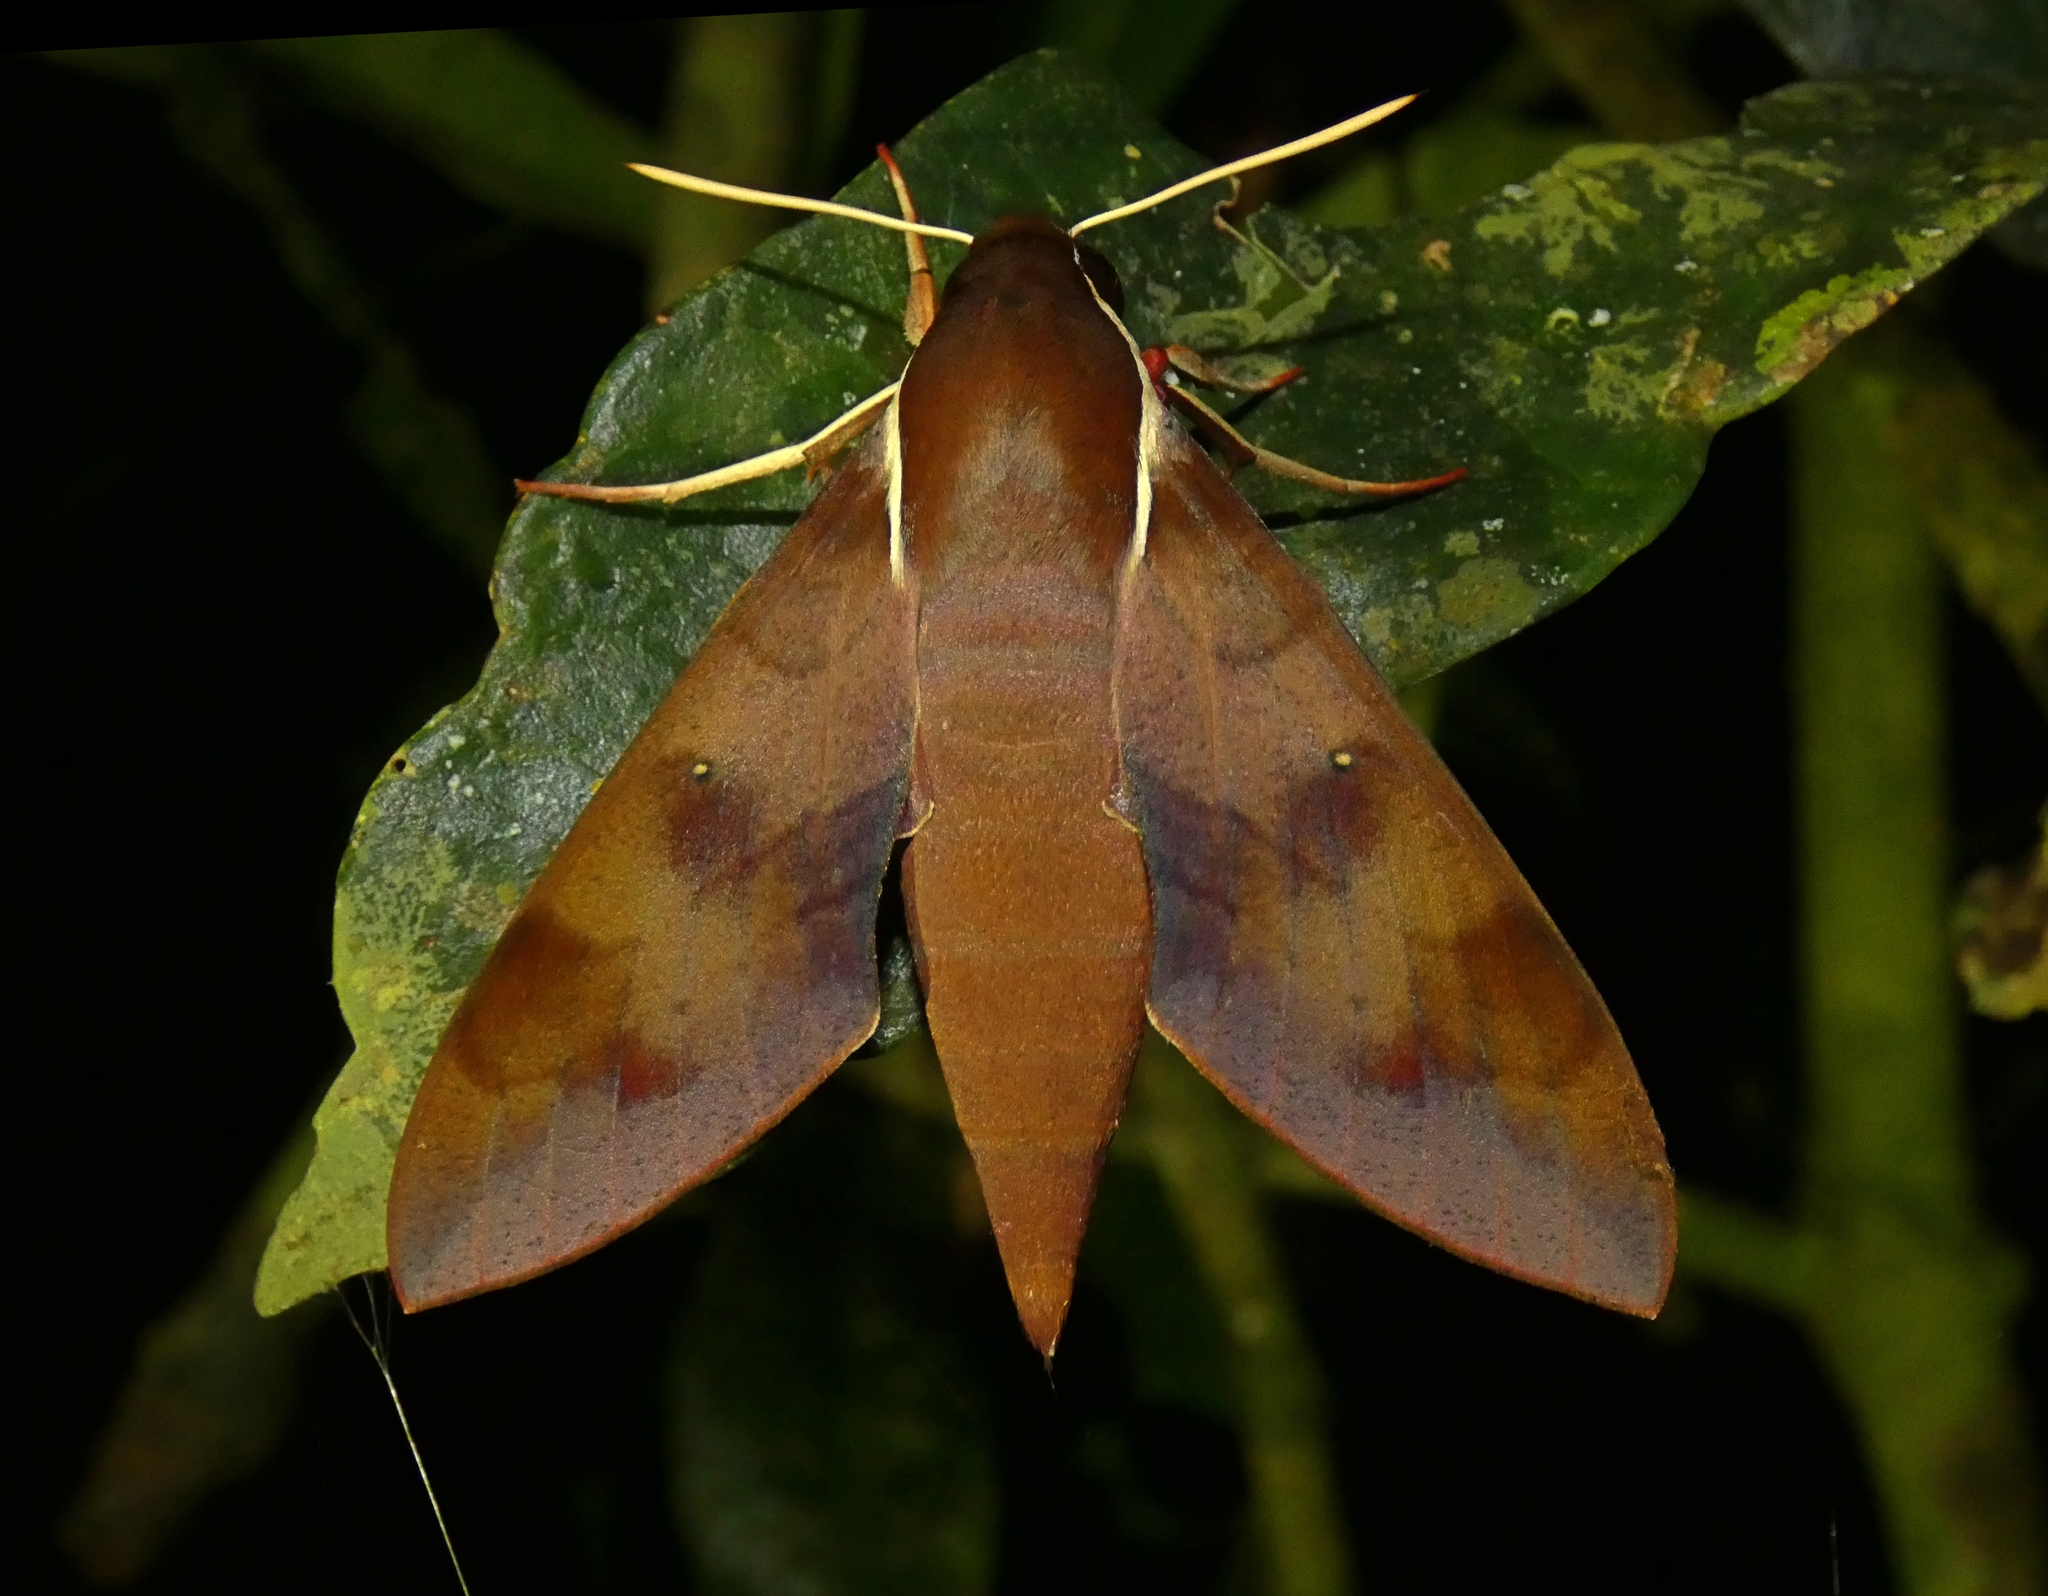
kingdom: Animalia
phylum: Arthropoda
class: Insecta
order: Lepidoptera
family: Sphingidae
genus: Gnathothlibus
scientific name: Gnathothlibus eras
